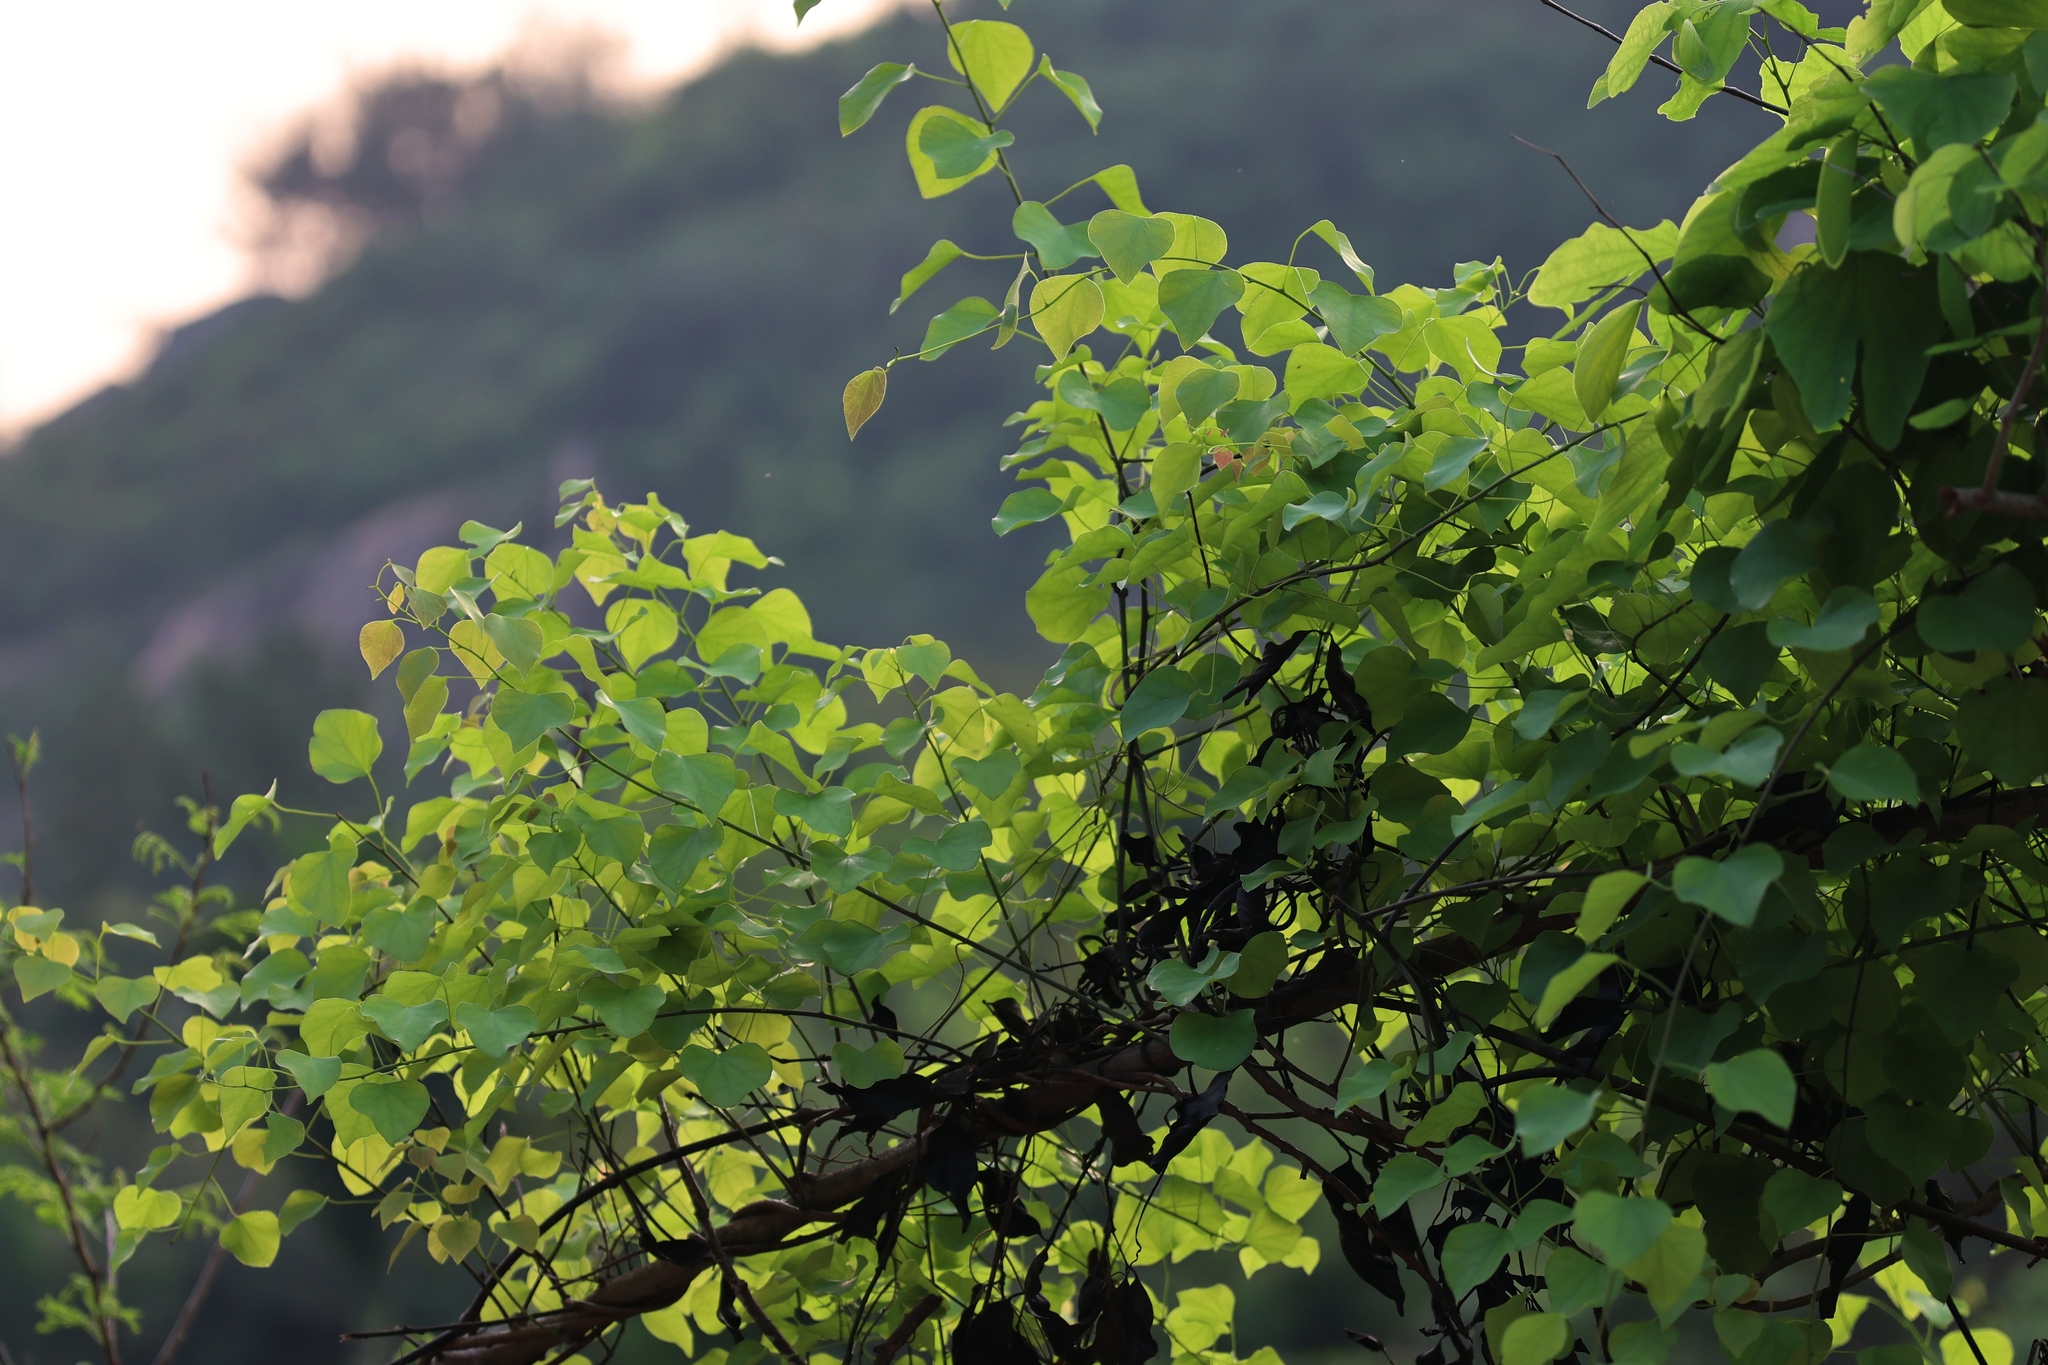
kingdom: Plantae
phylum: Tracheophyta
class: Magnoliopsida
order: Ranunculales
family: Menispermaceae
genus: Diploclisia
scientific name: Diploclisia glaucescens
